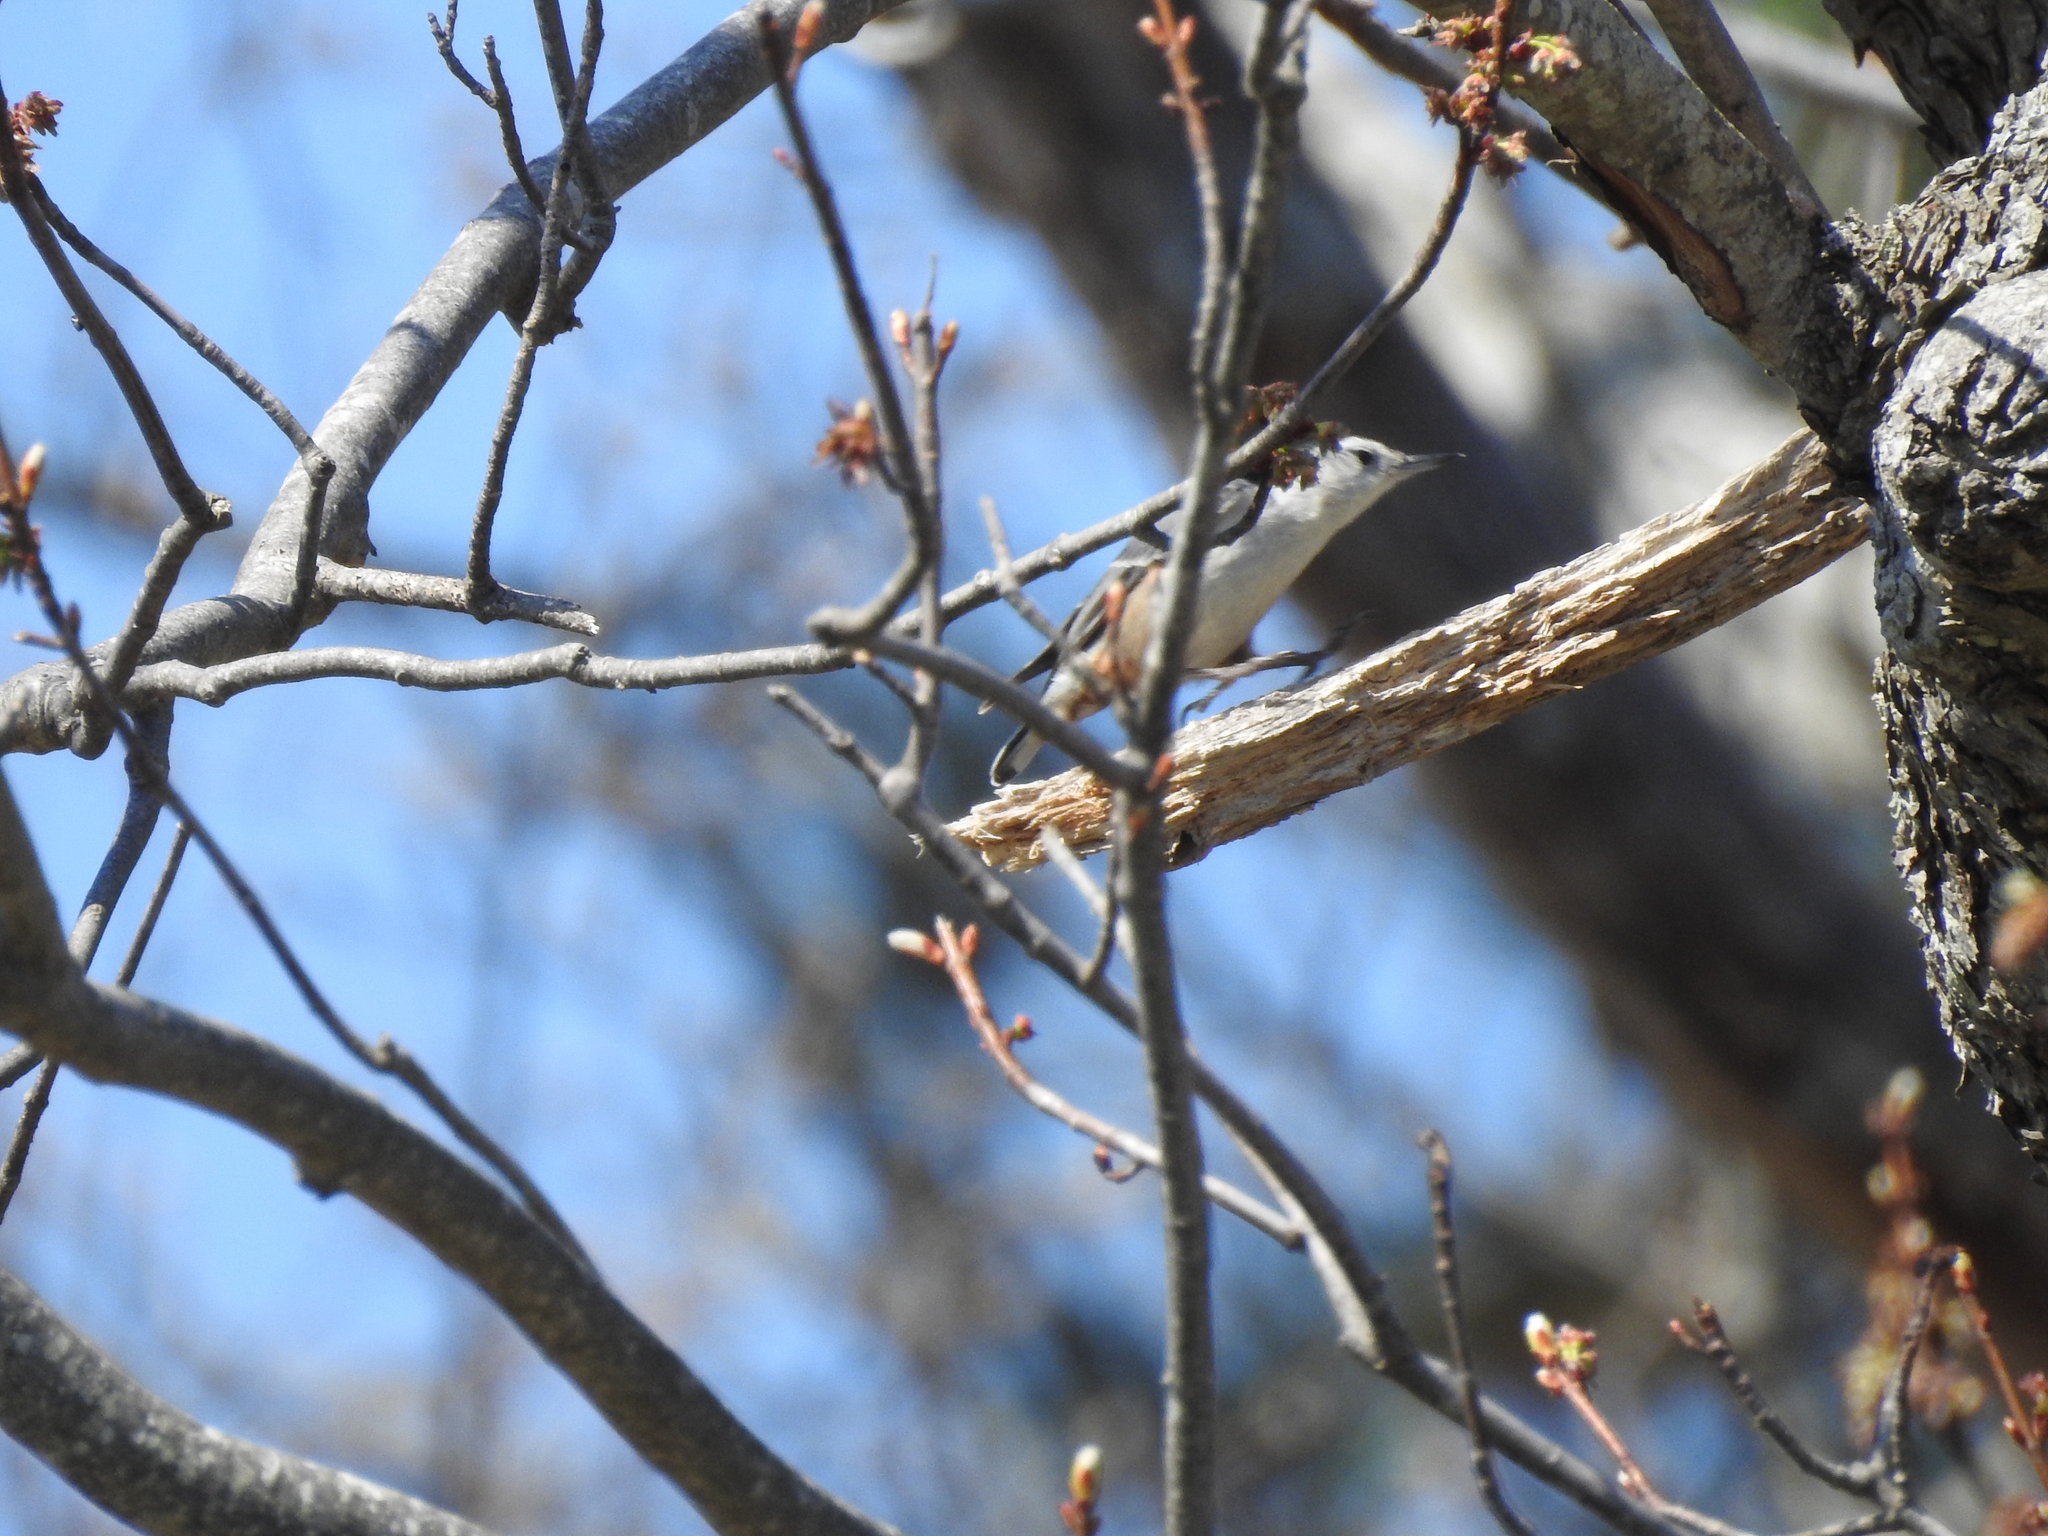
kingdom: Animalia
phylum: Chordata
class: Aves
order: Passeriformes
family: Sittidae
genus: Sitta
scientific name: Sitta carolinensis
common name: White-breasted nuthatch
